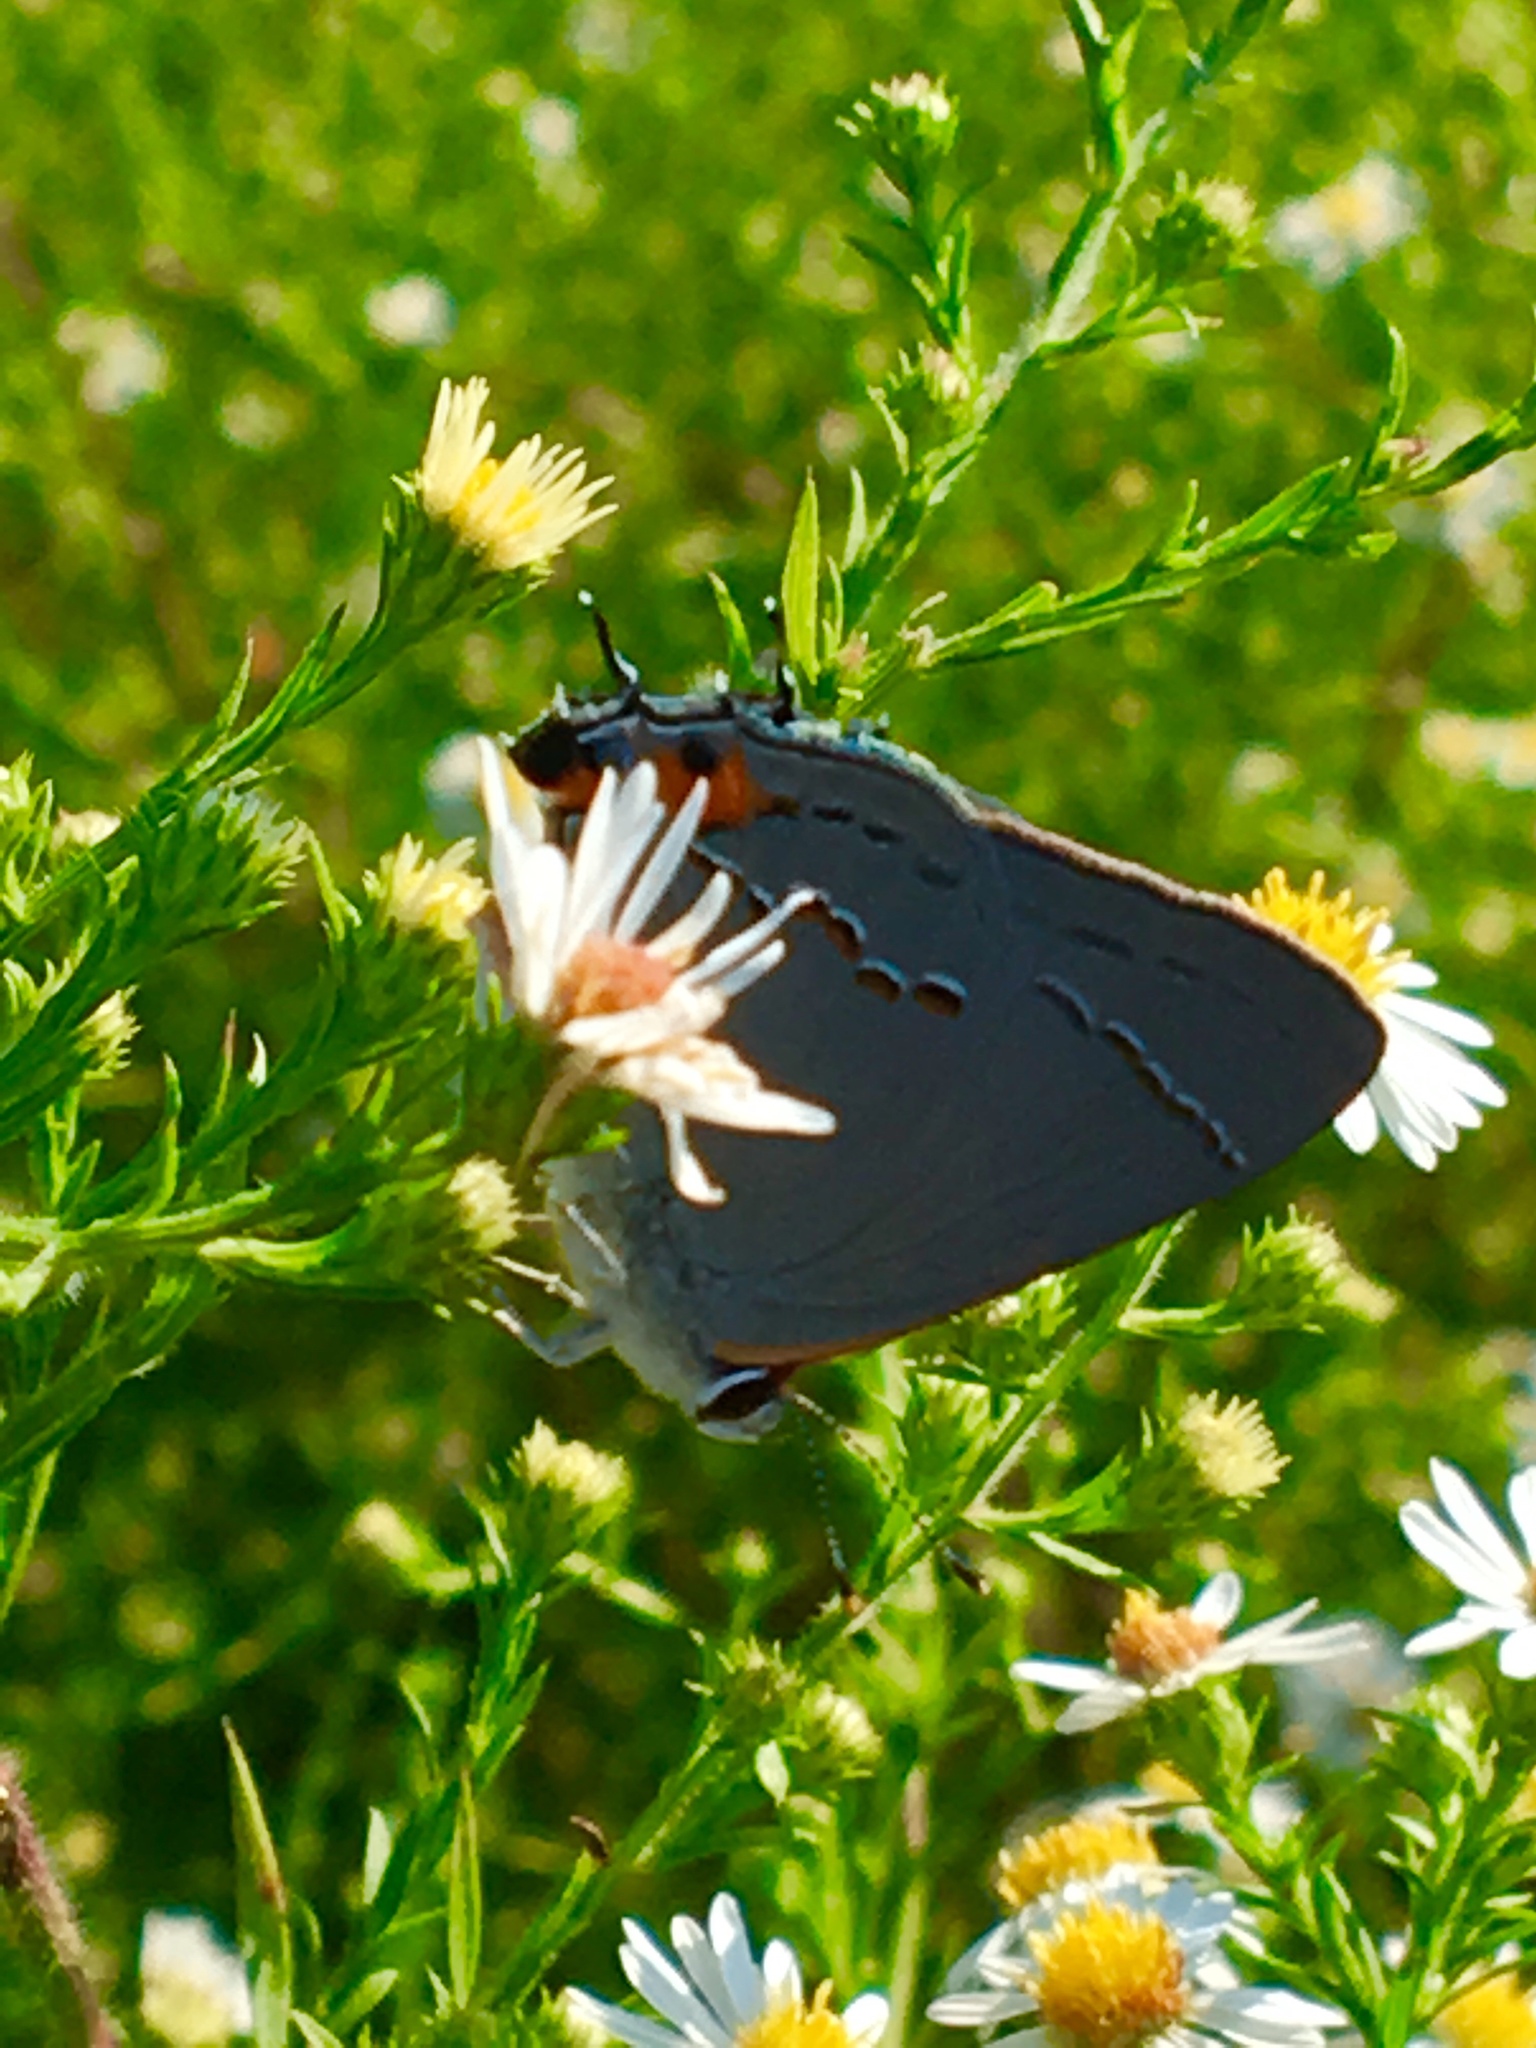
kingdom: Animalia
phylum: Arthropoda
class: Insecta
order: Lepidoptera
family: Lycaenidae
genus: Strymon
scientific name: Strymon melinus
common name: Gray hairstreak
